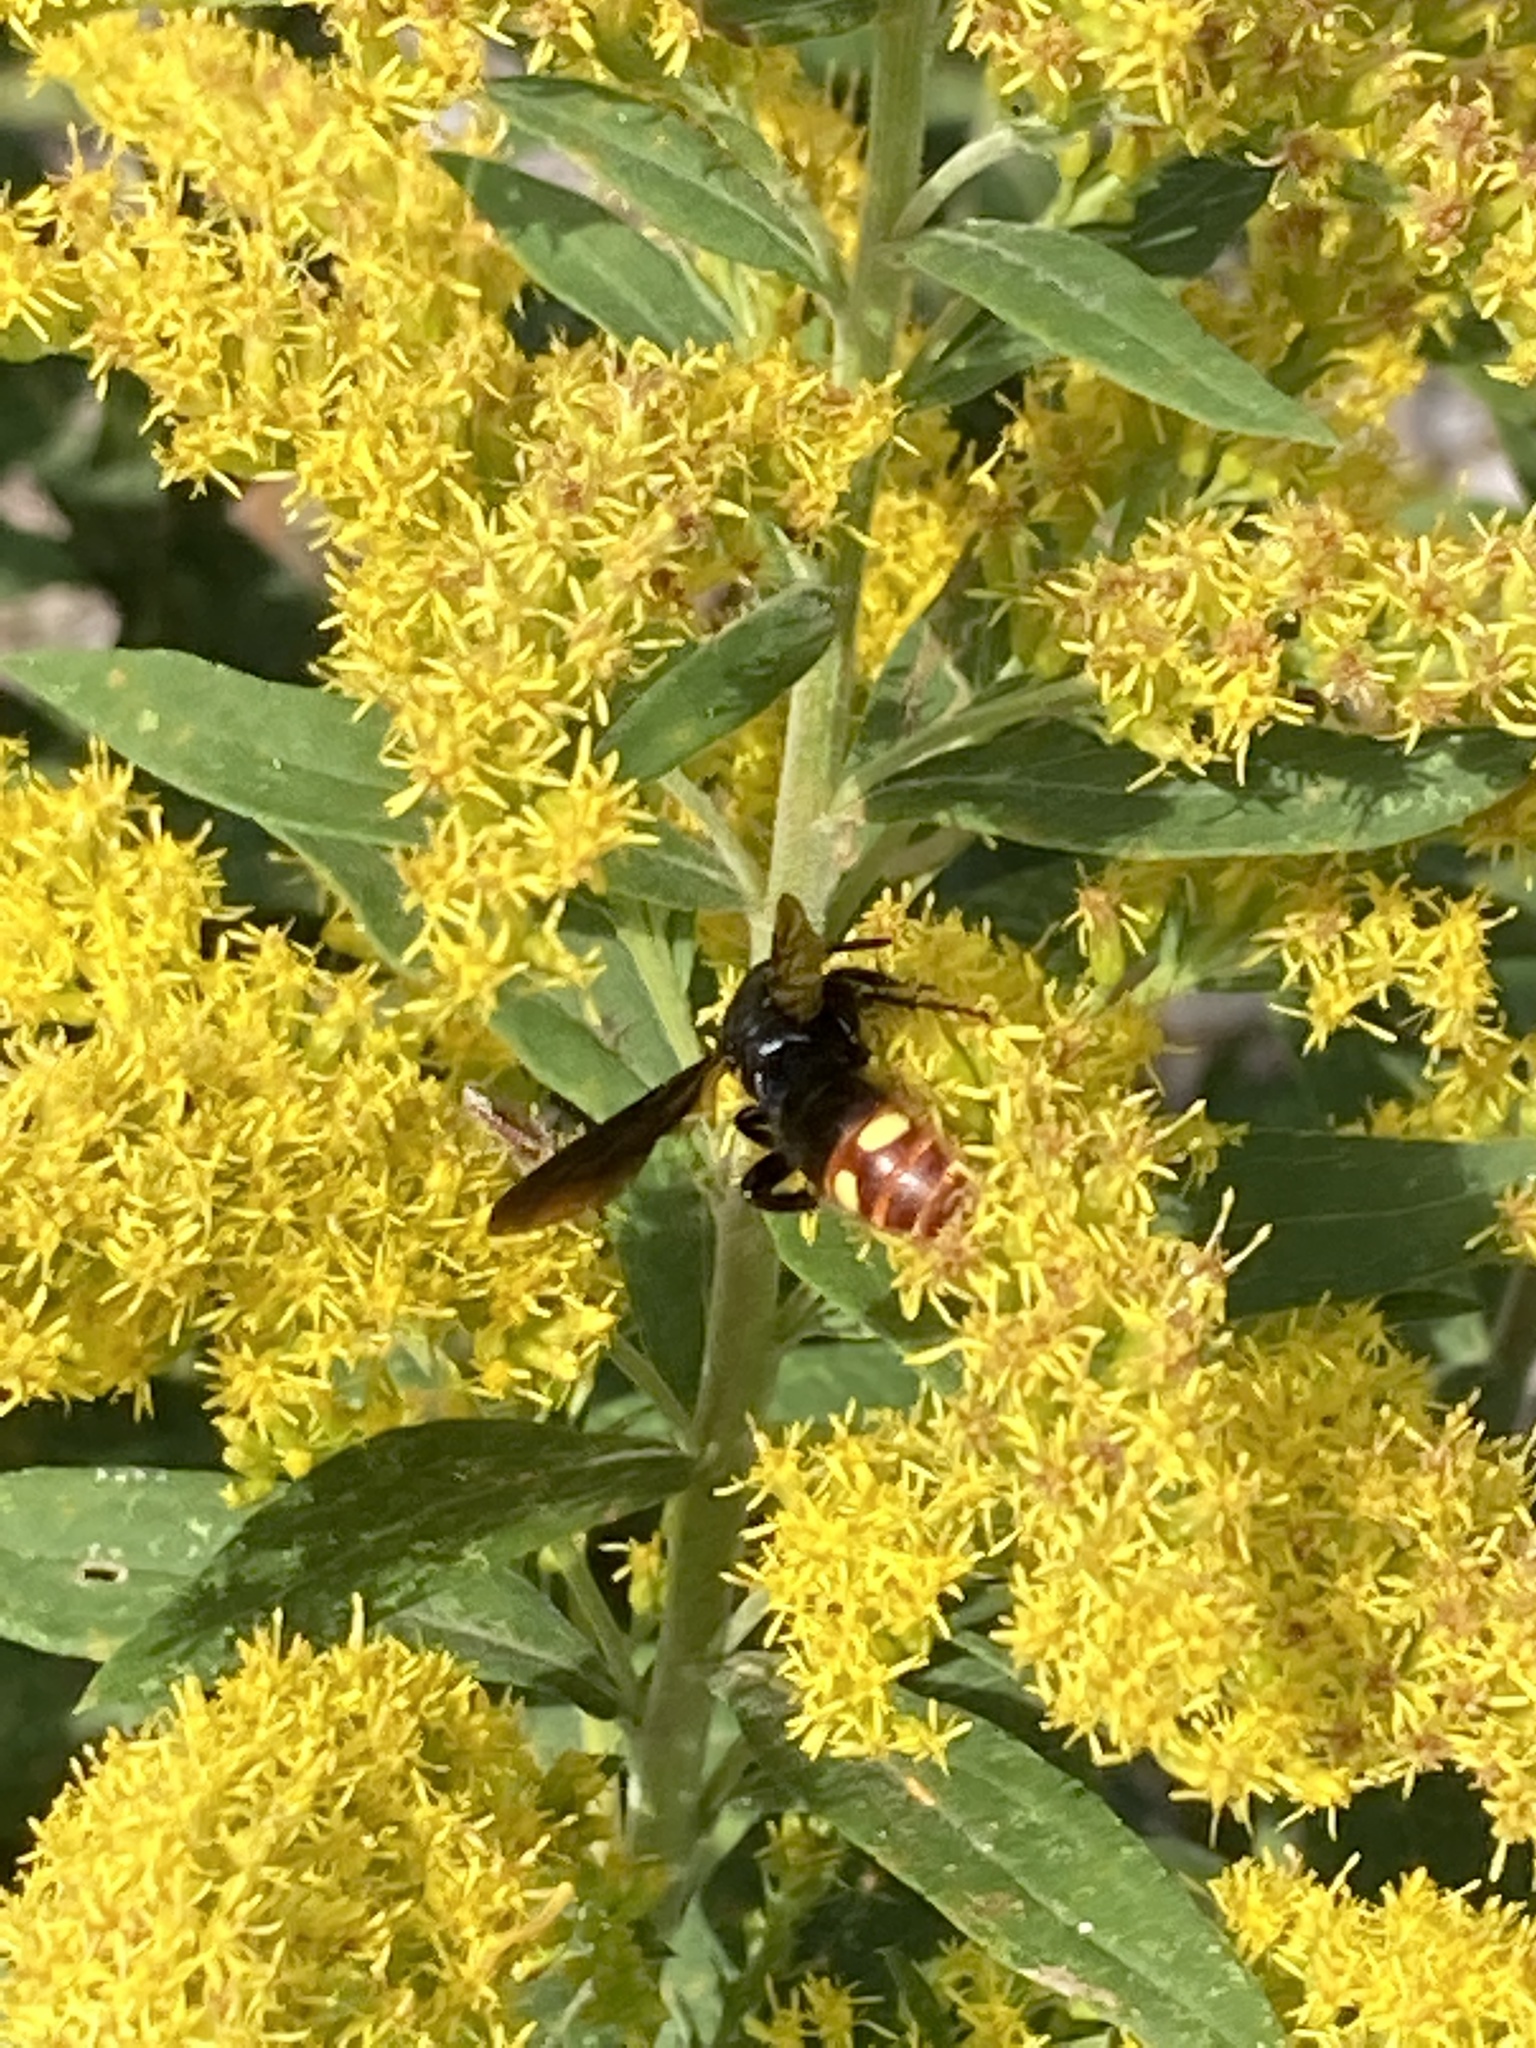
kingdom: Animalia
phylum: Arthropoda
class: Insecta
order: Hymenoptera
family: Scoliidae
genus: Scolia
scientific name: Scolia dubia
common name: Blue-winged scoliid wasp
